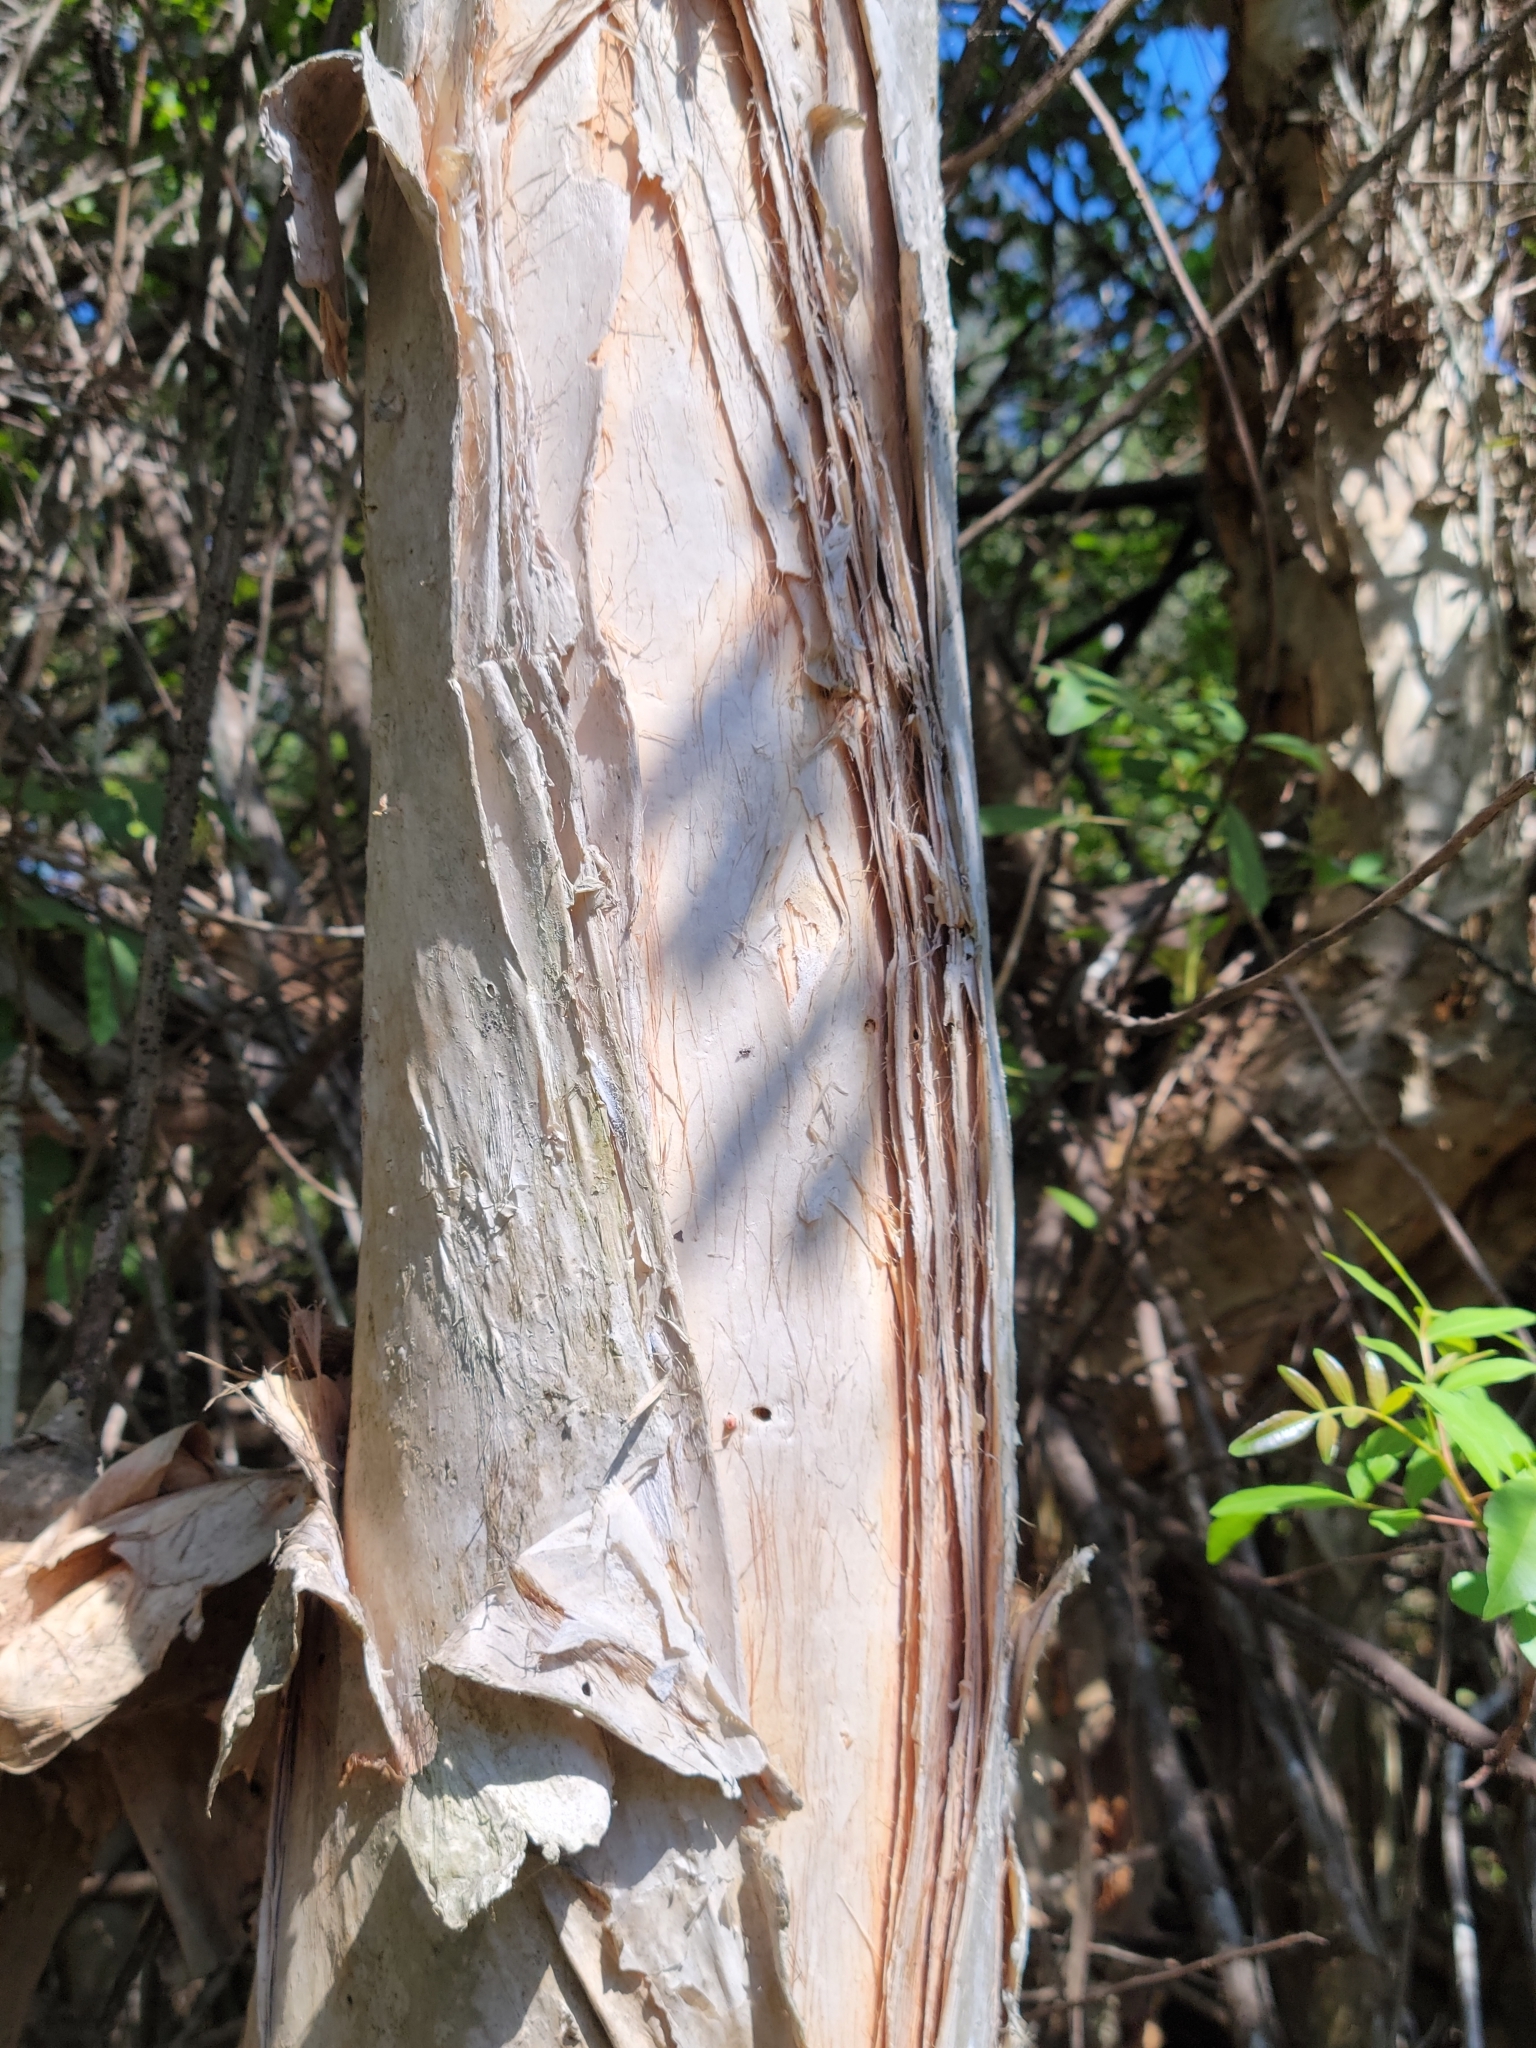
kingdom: Plantae
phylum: Tracheophyta
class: Magnoliopsida
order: Myrtales
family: Myrtaceae
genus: Melaleuca
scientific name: Melaleuca quinquenervia
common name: Punktree
